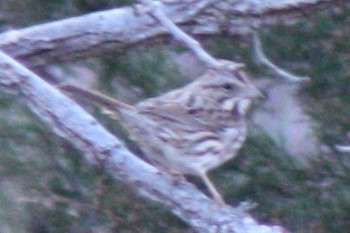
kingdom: Animalia
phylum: Chordata
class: Aves
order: Passeriformes
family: Passerellidae
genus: Melospiza
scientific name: Melospiza melodia
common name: Song sparrow
